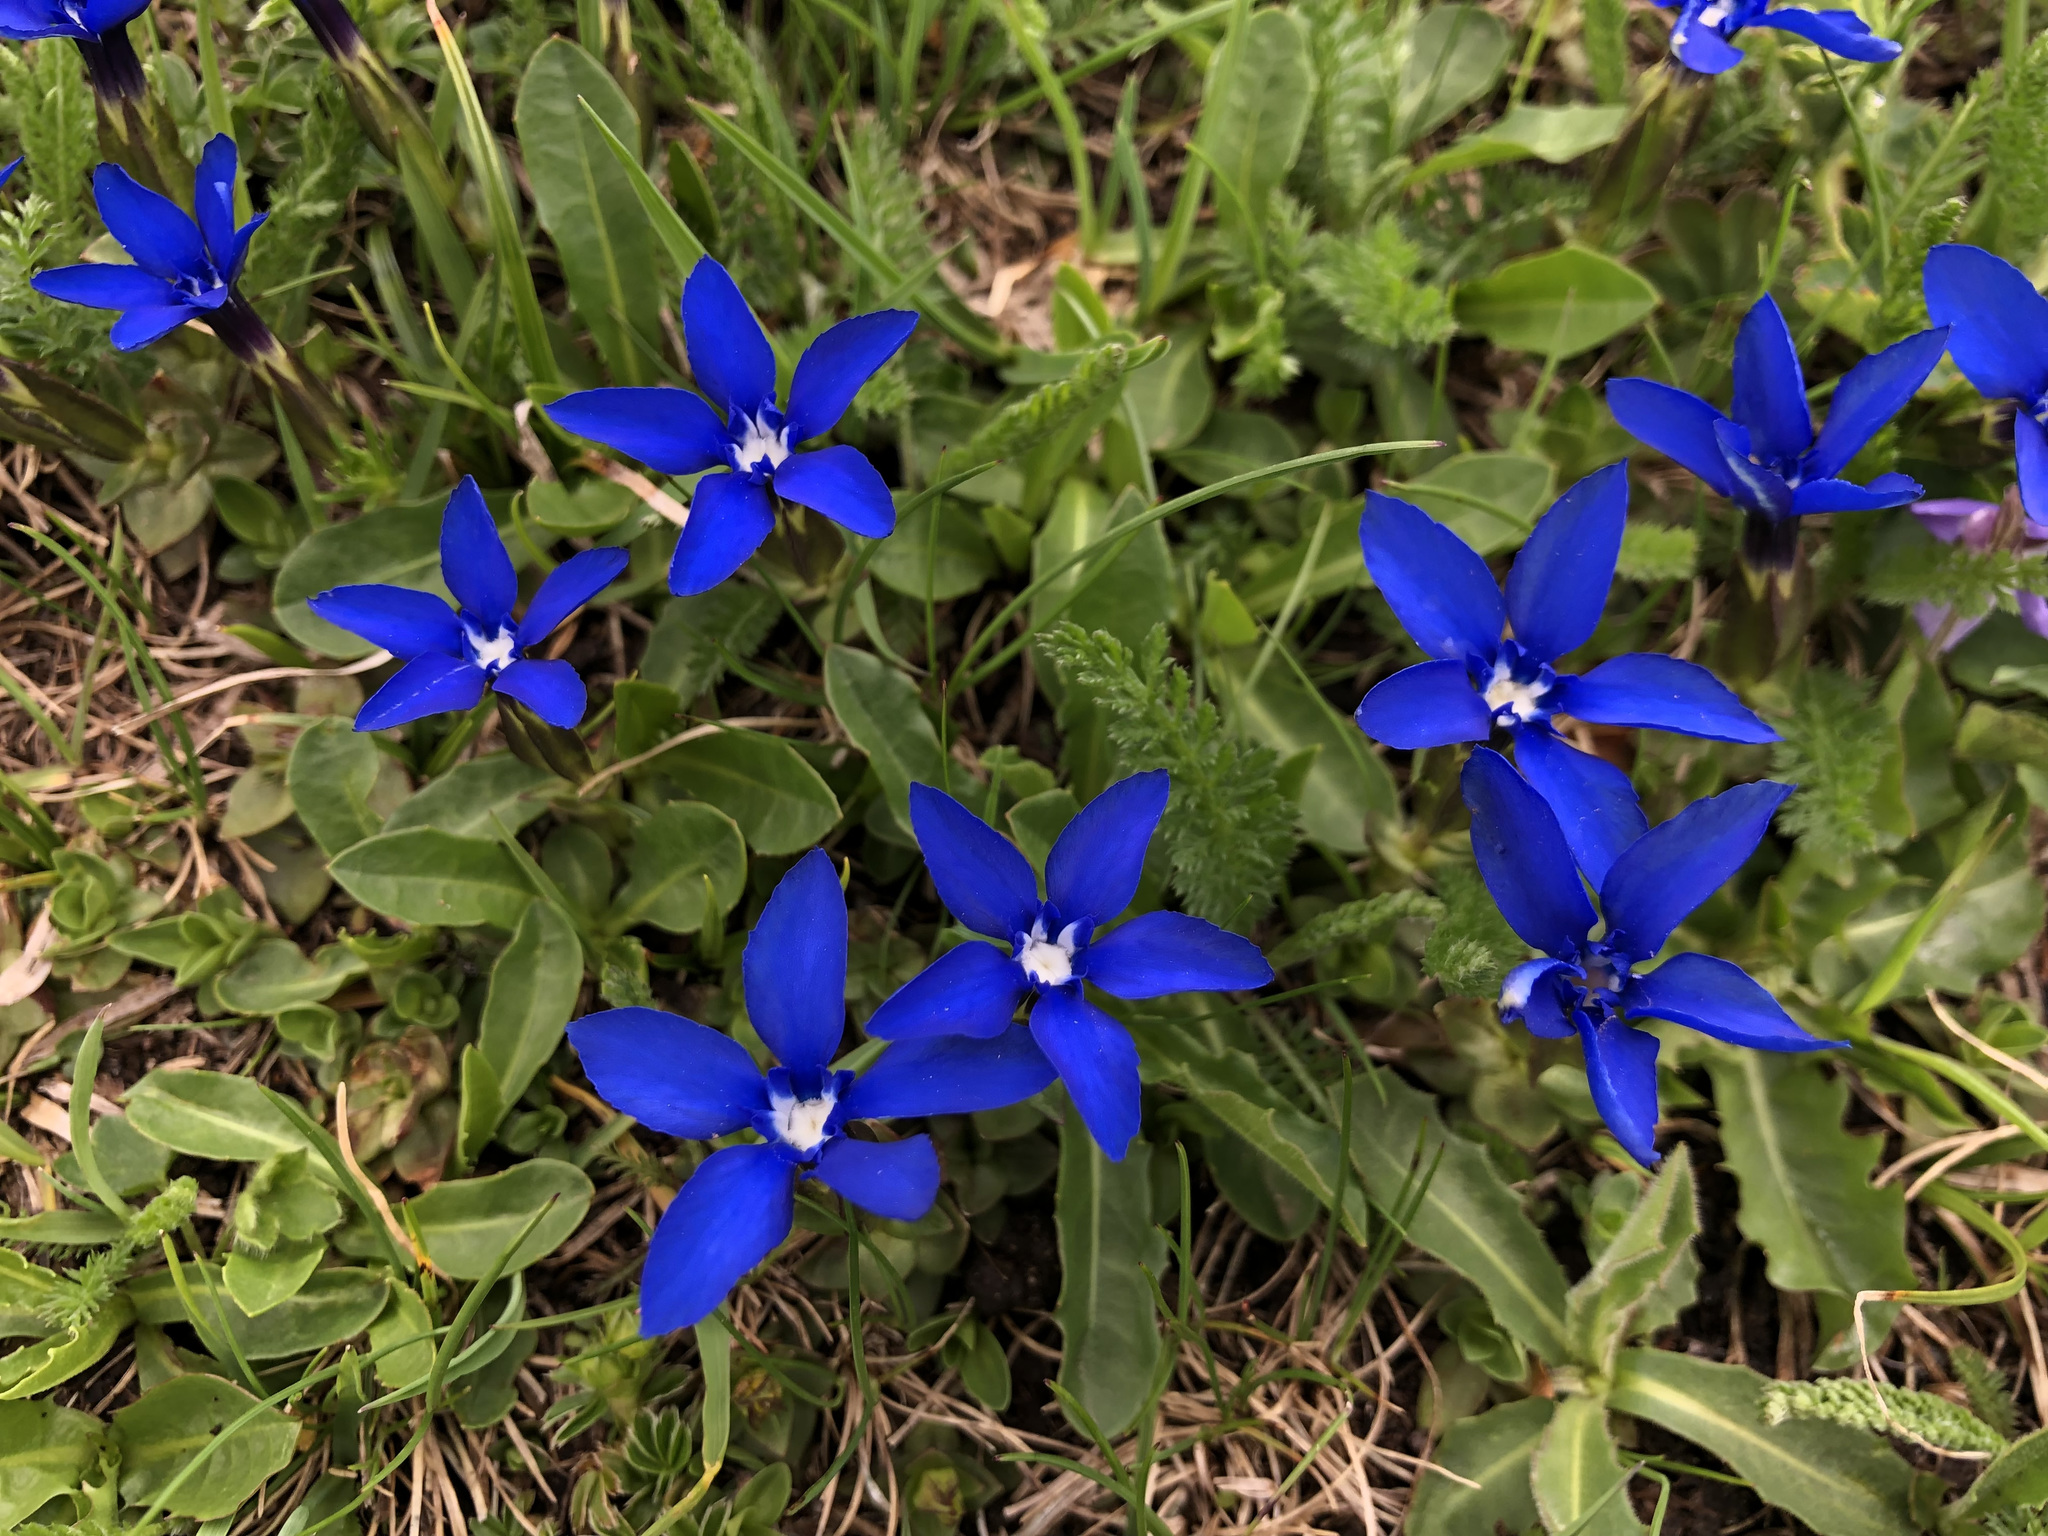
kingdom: Plantae
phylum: Tracheophyta
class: Magnoliopsida
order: Gentianales
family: Gentianaceae
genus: Gentiana
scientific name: Gentiana verna
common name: Spring gentian
